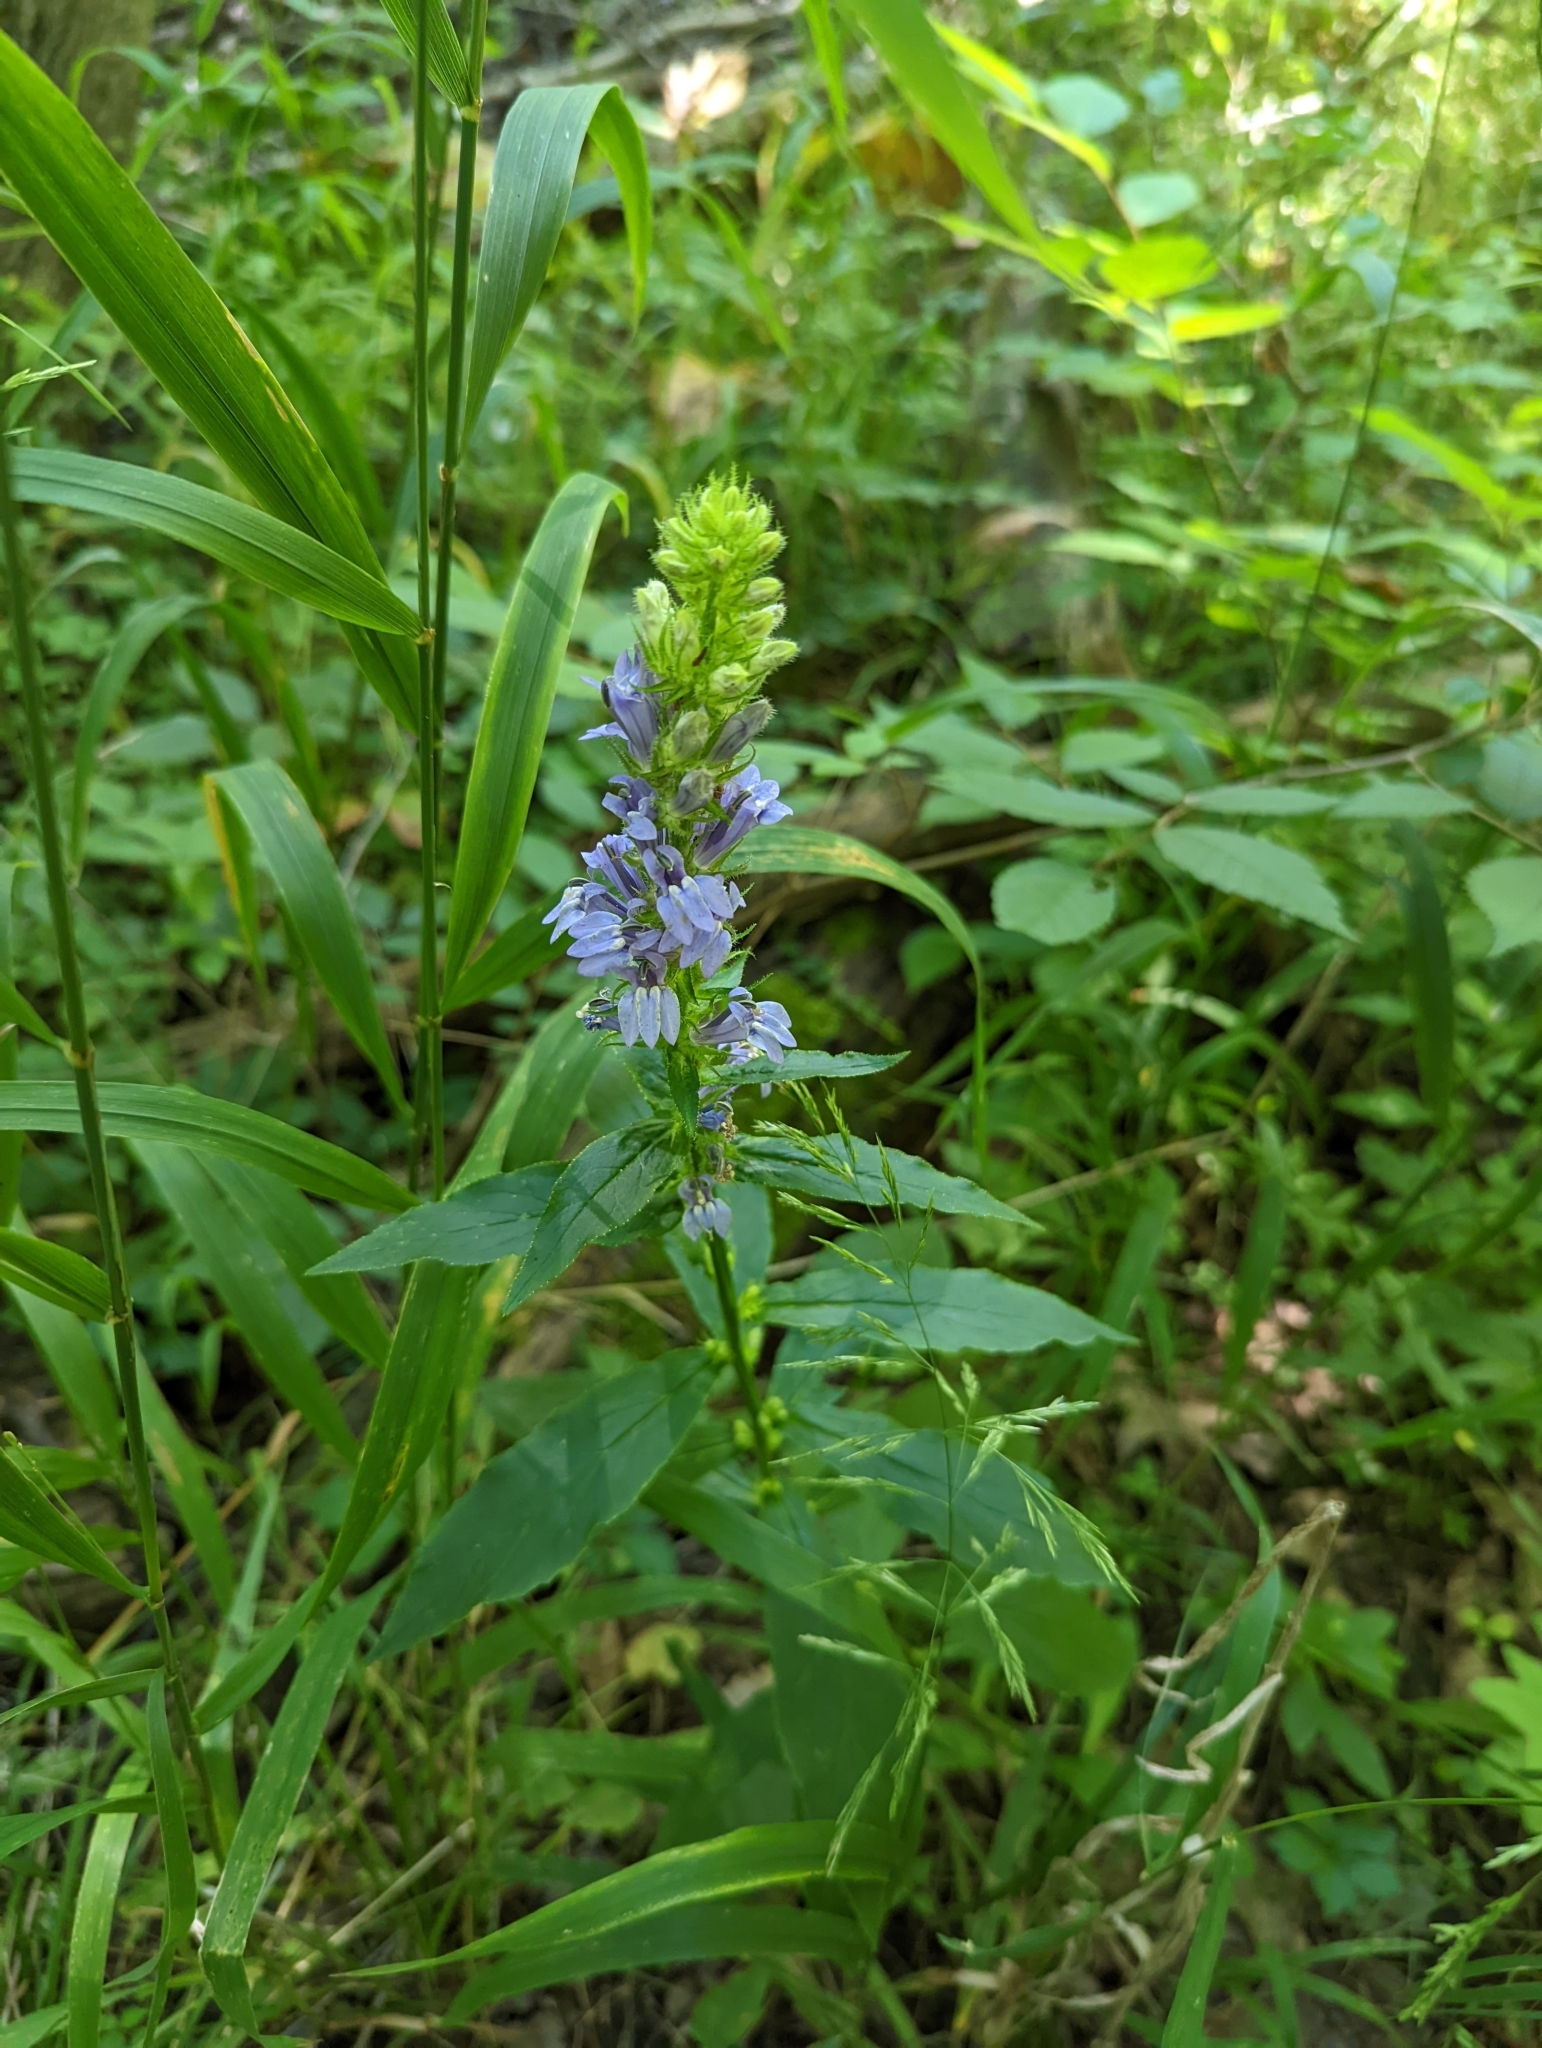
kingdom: Plantae
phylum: Tracheophyta
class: Magnoliopsida
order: Asterales
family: Campanulaceae
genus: Lobelia
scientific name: Lobelia siphilitica
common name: Great lobelia
